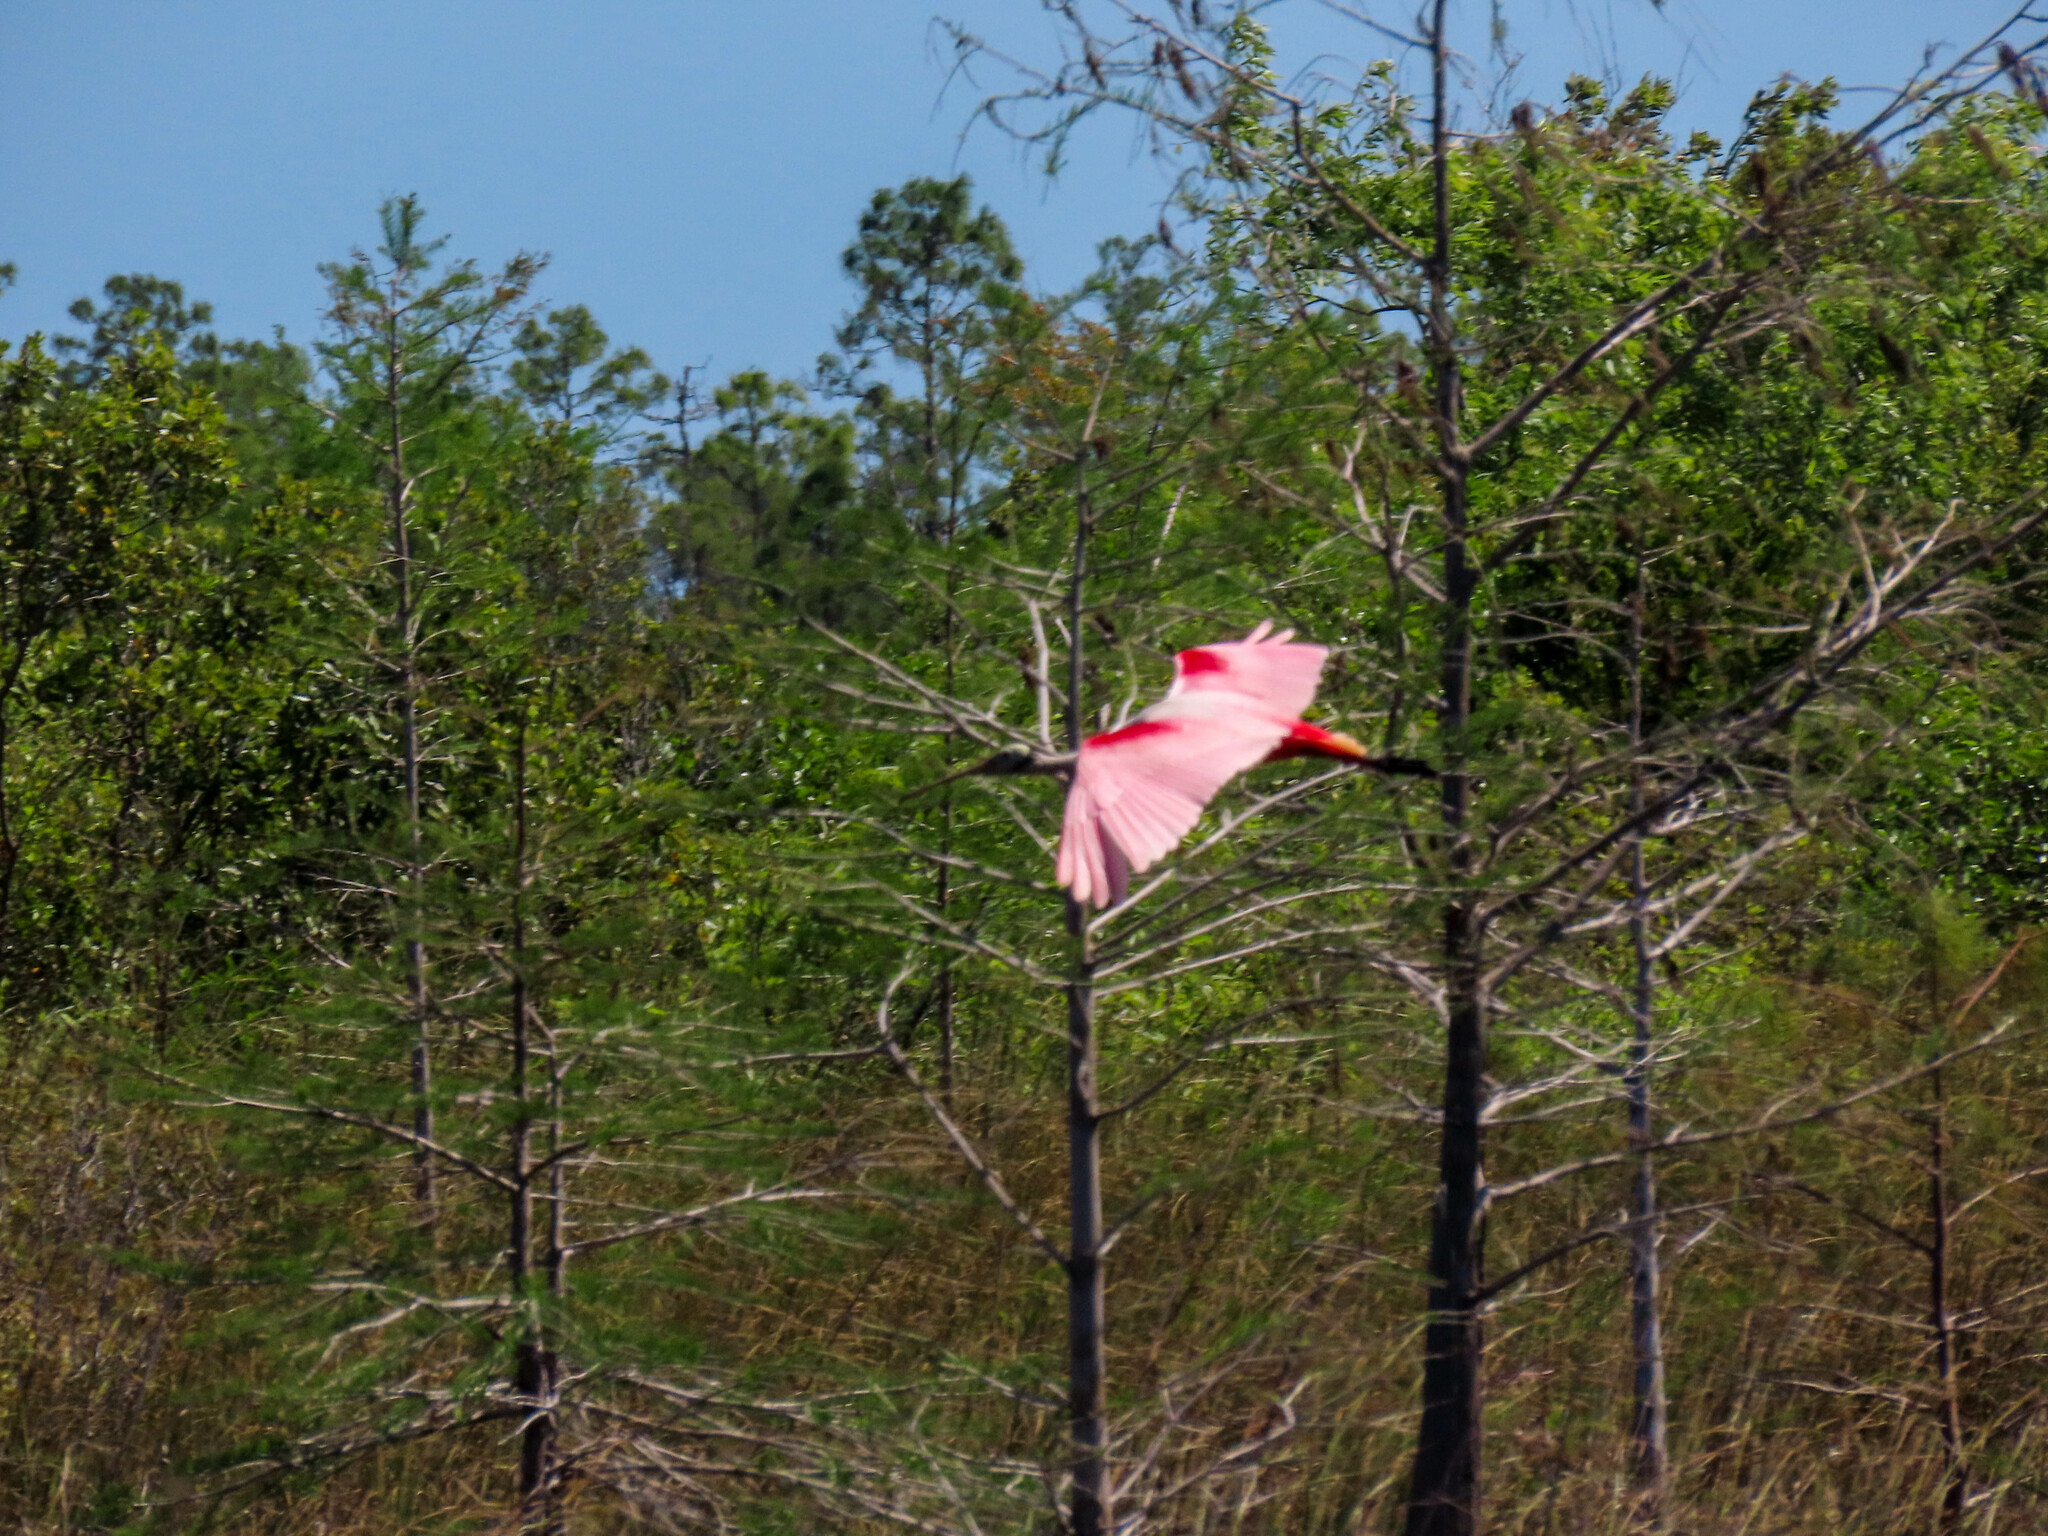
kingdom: Animalia
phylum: Chordata
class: Aves
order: Pelecaniformes
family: Threskiornithidae
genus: Platalea
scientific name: Platalea ajaja
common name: Roseate spoonbill
